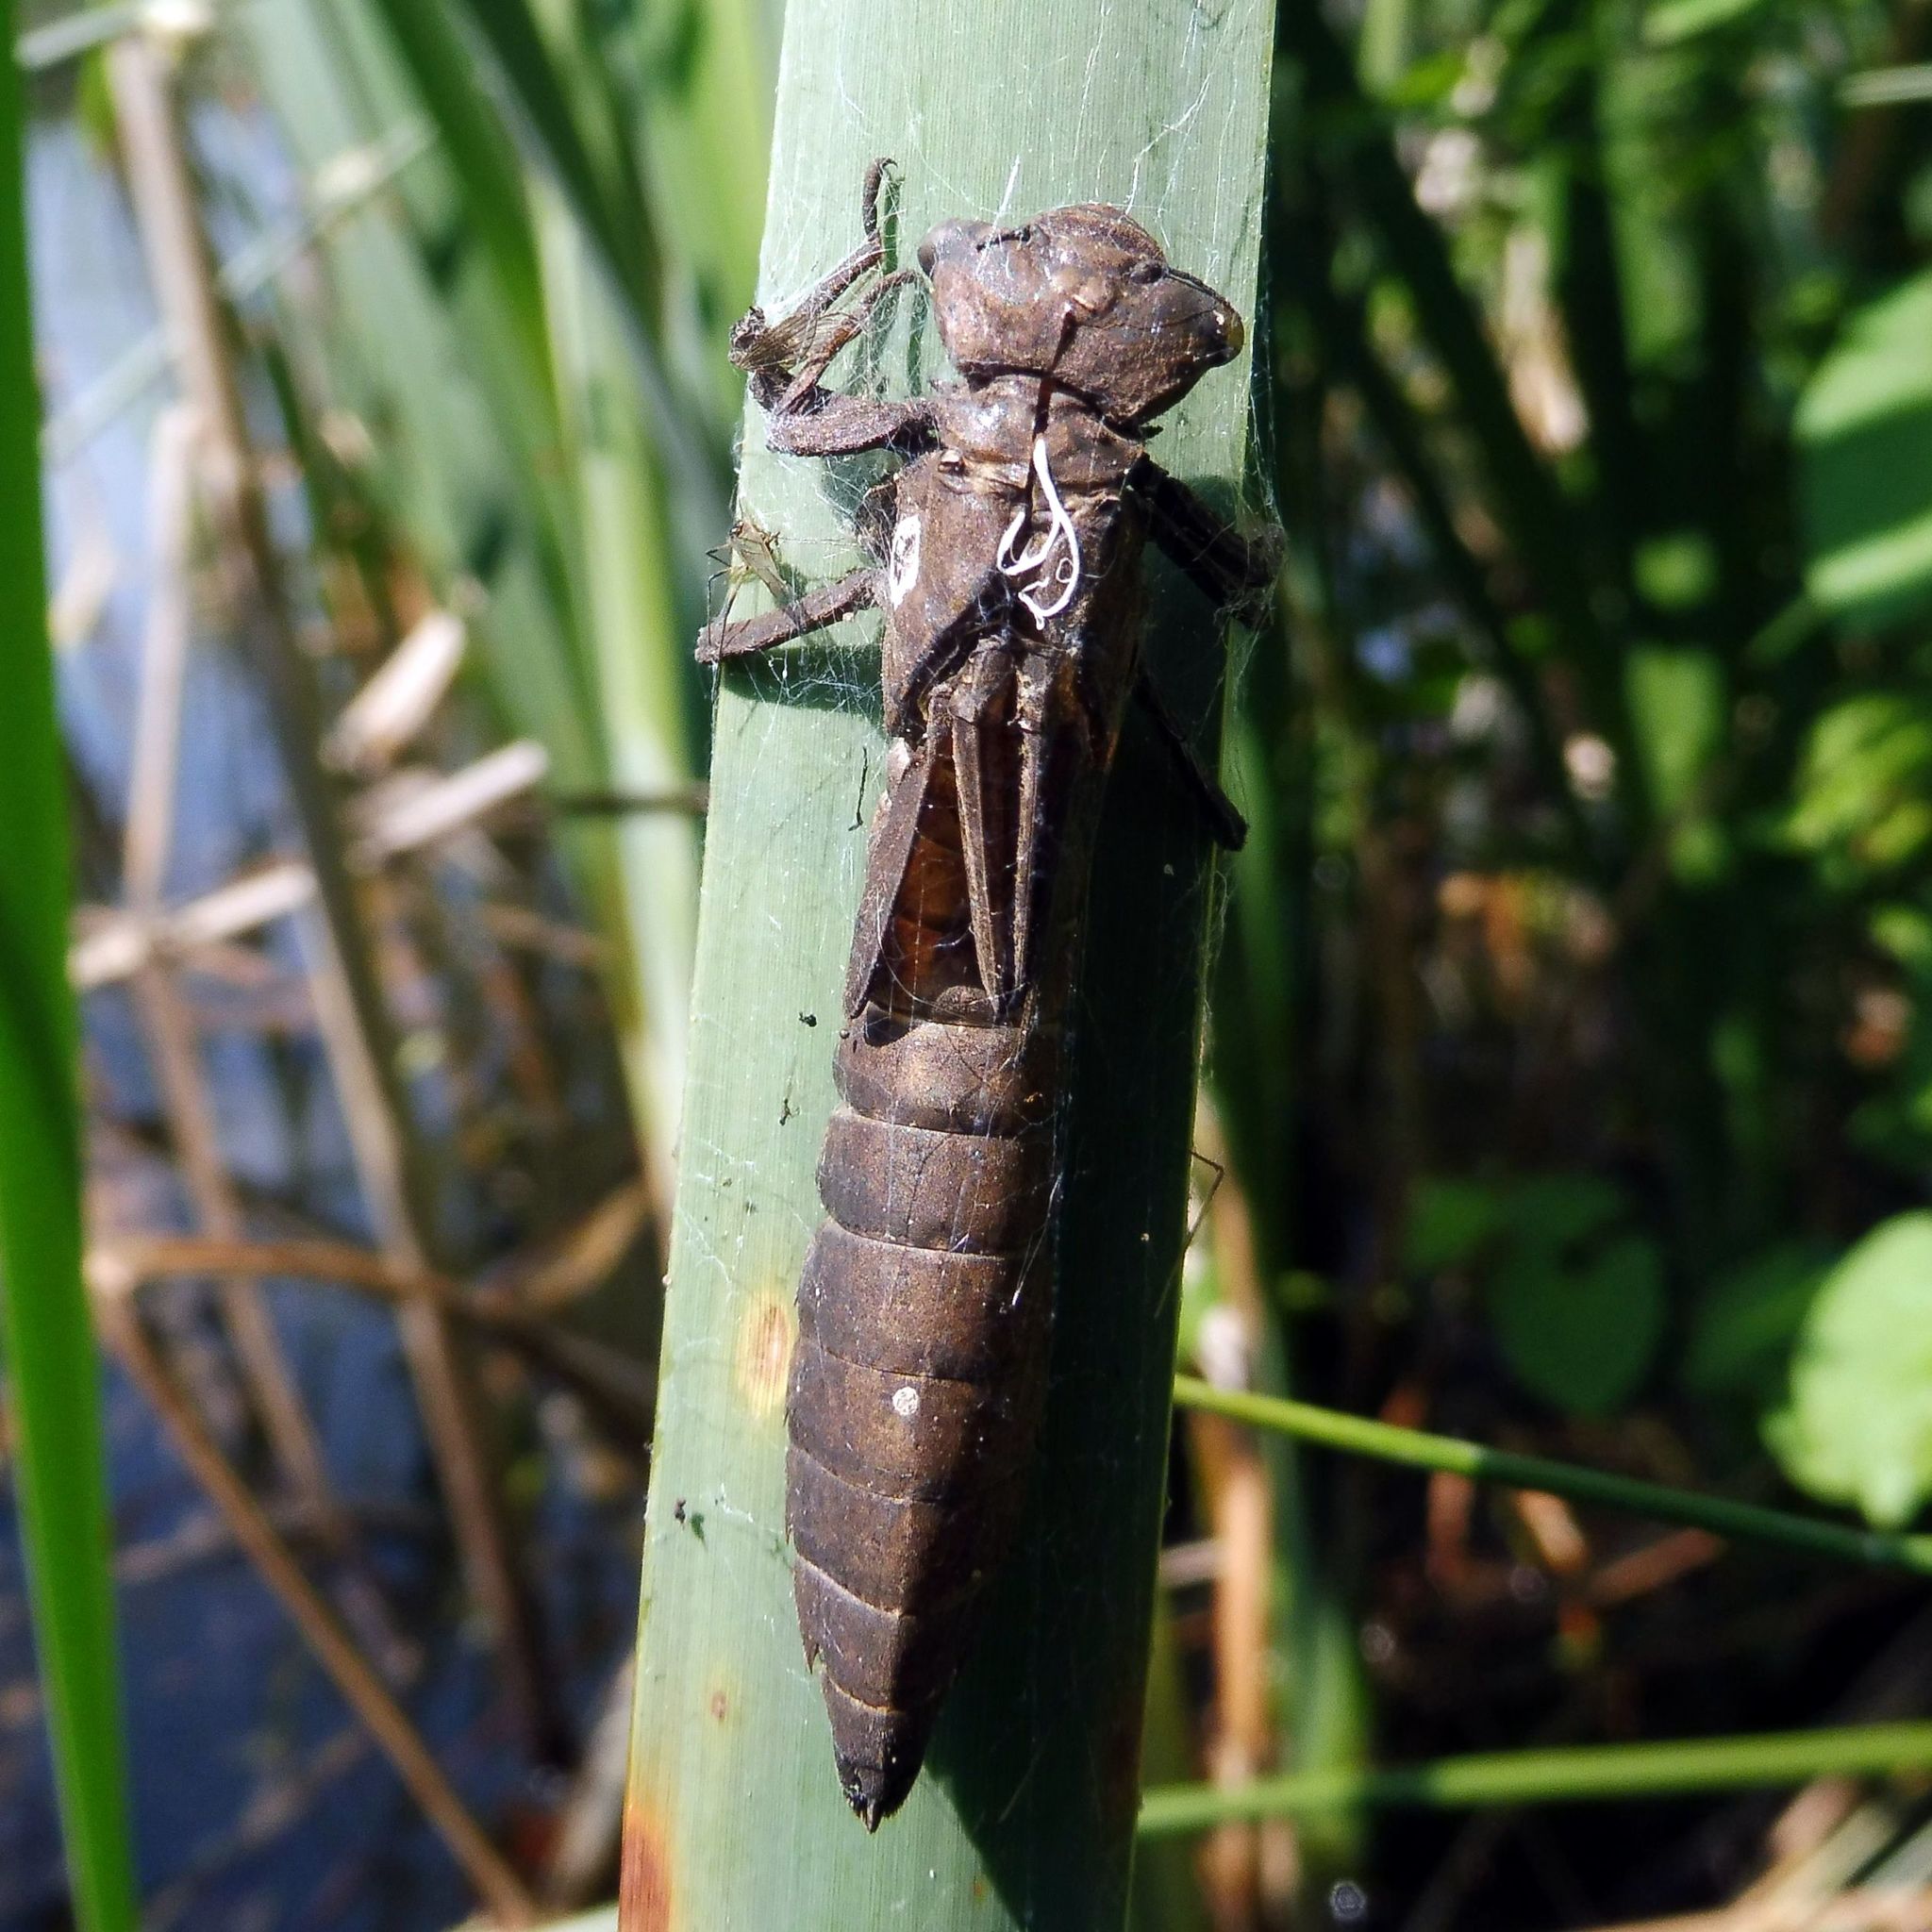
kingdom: Animalia
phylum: Arthropoda
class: Insecta
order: Odonata
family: Aeshnidae
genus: Brachytron
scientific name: Brachytron pratense
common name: Hairy hawker
